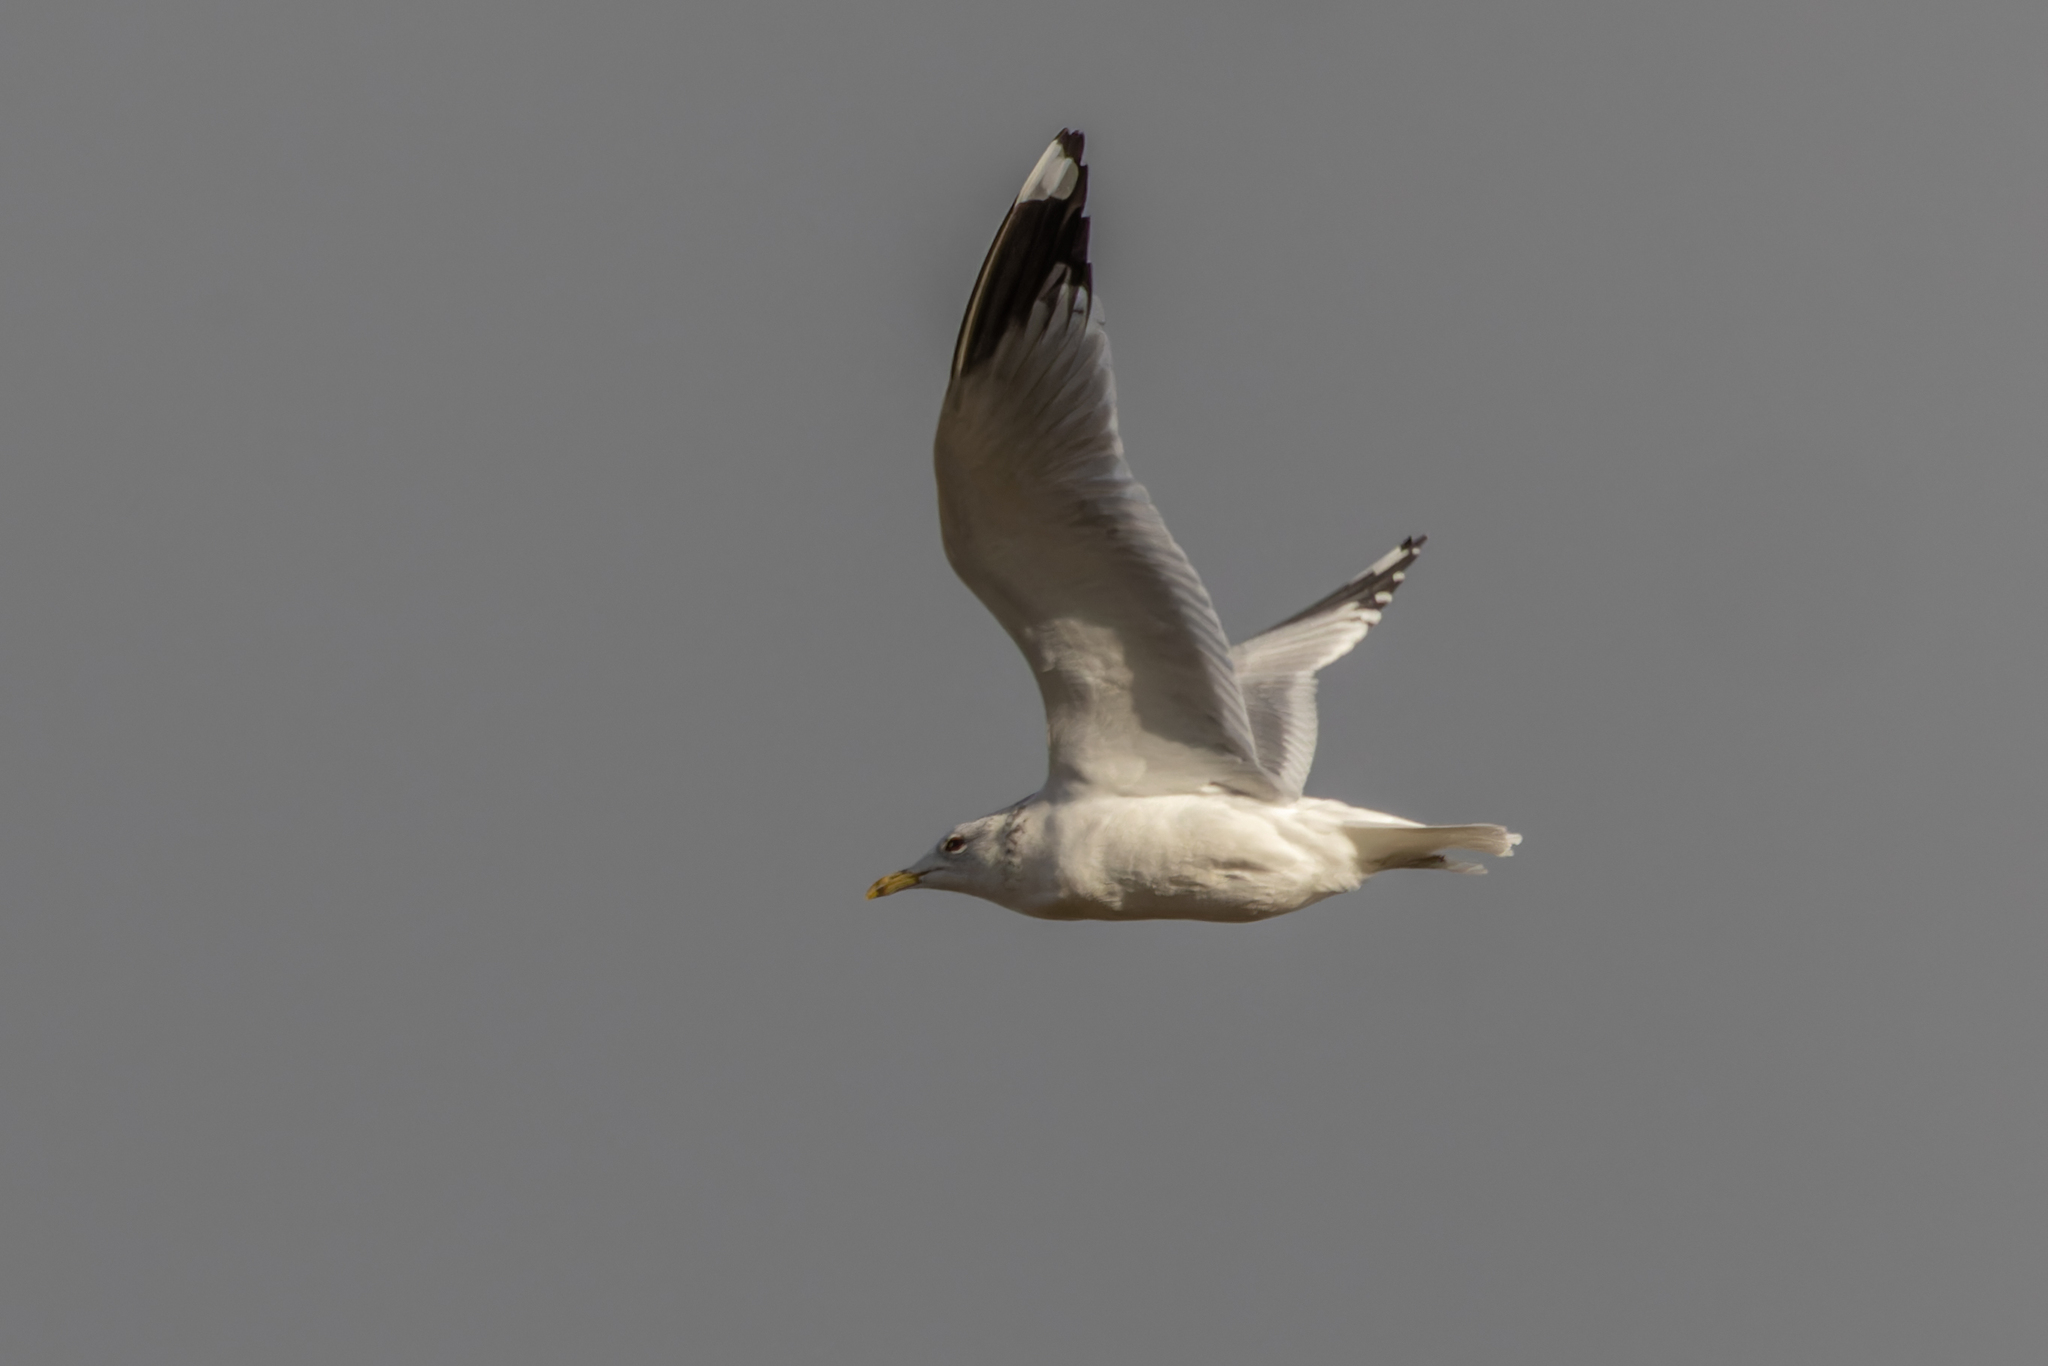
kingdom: Animalia
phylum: Chordata
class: Aves
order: Charadriiformes
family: Laridae
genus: Larus
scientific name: Larus canus
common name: Mew gull
